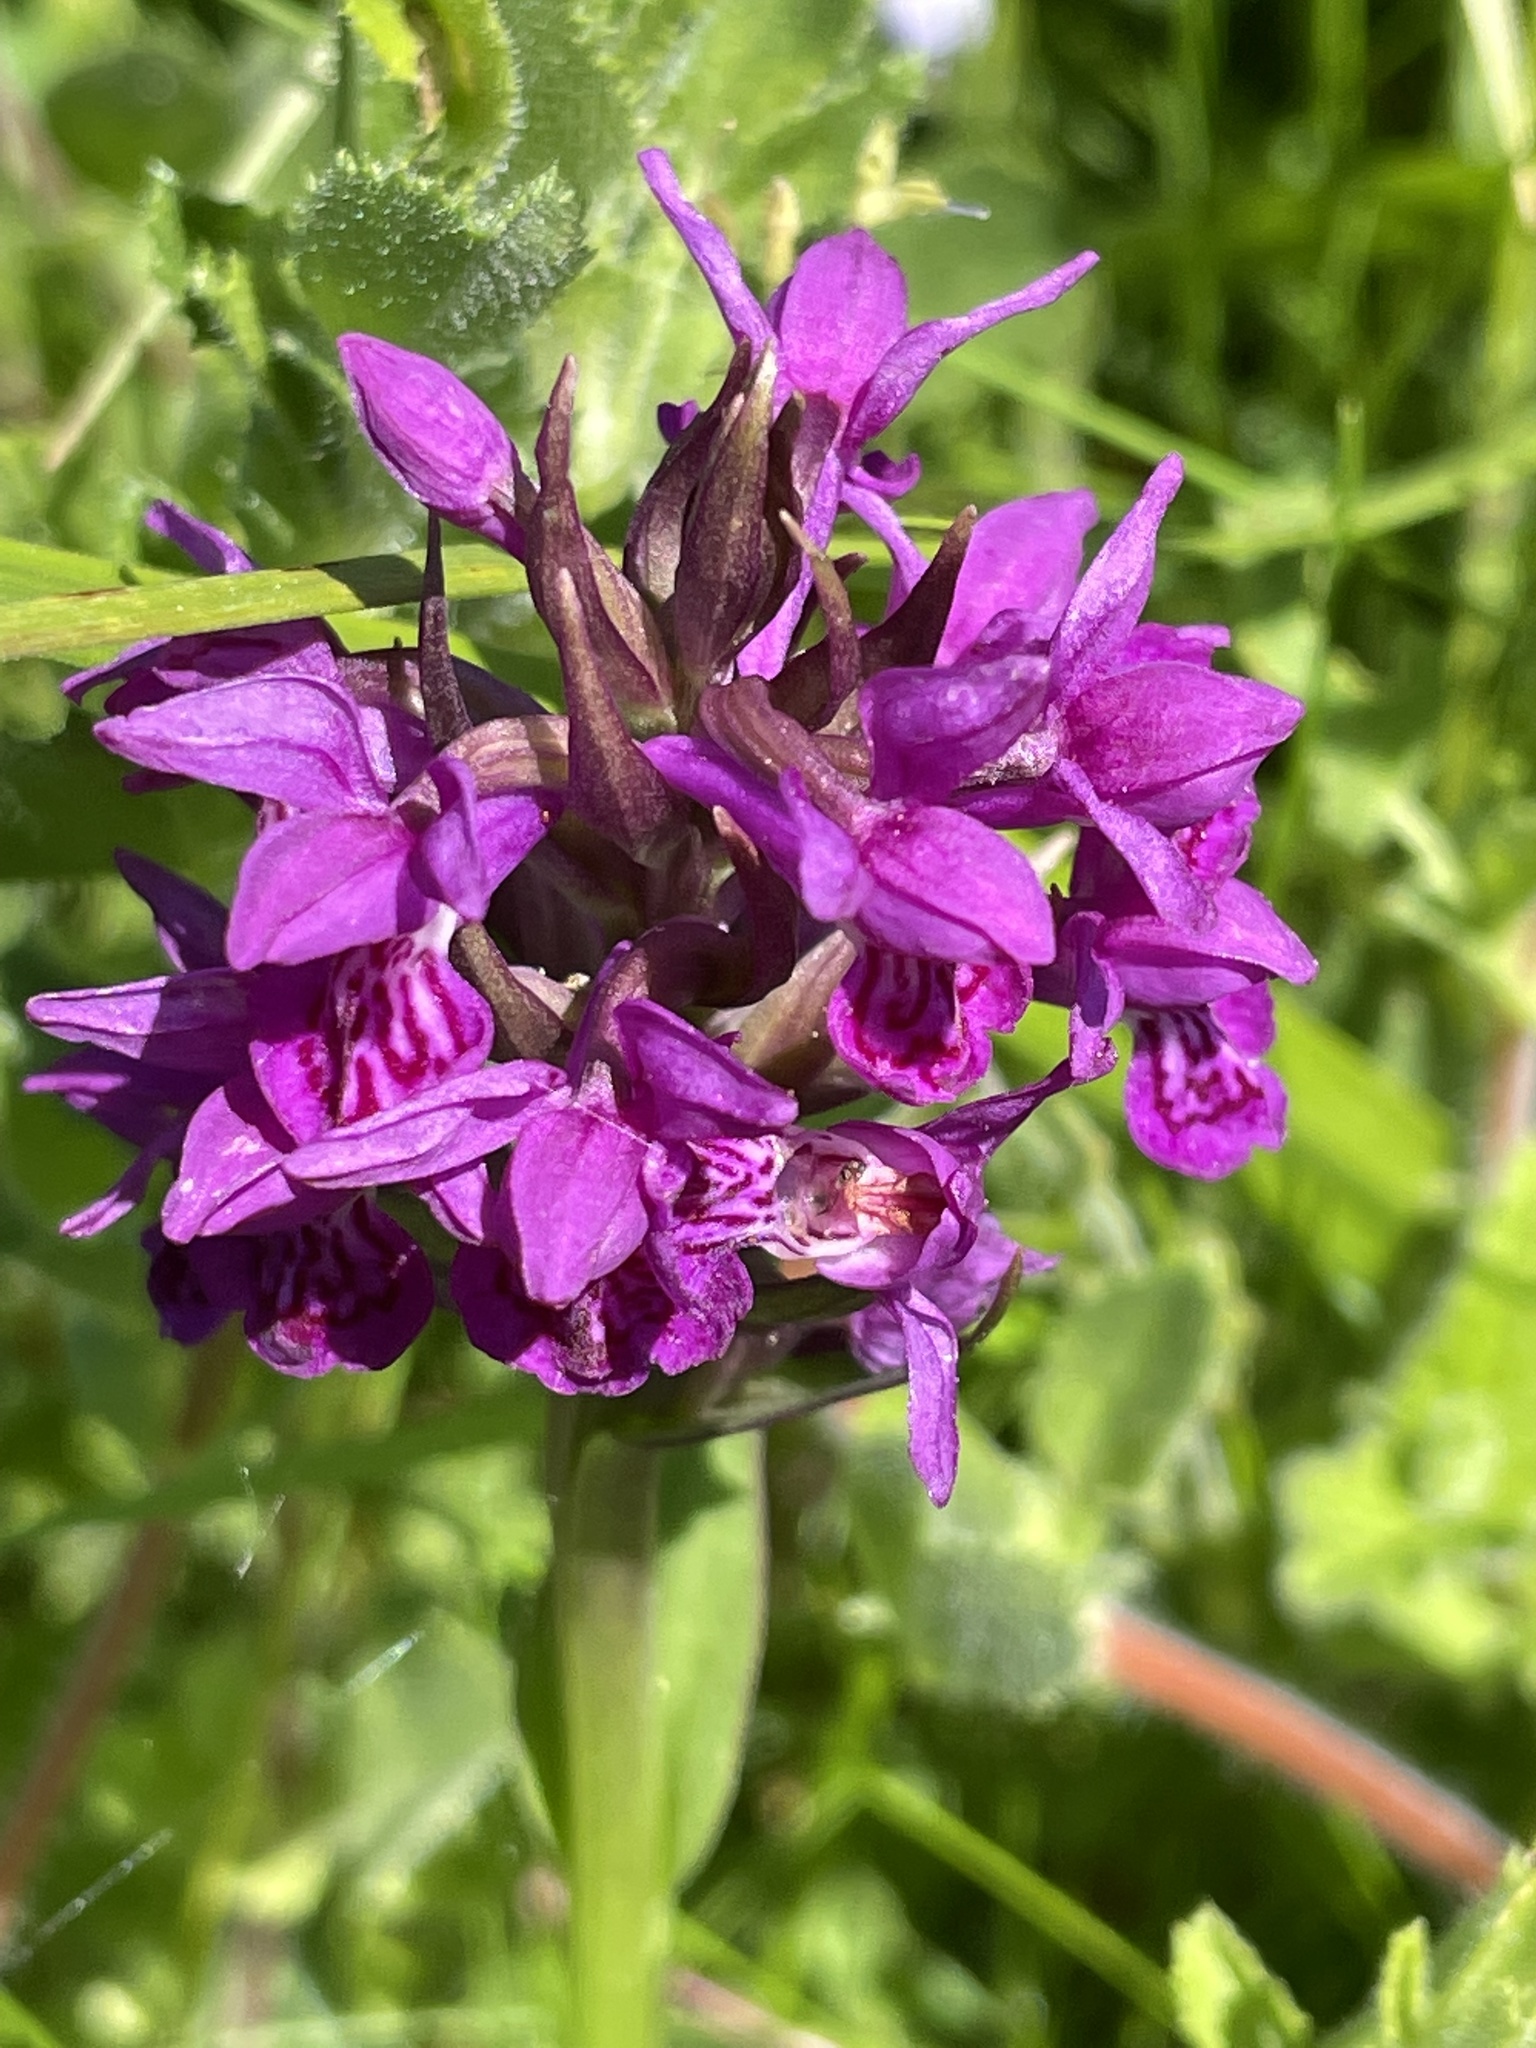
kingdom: Plantae
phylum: Tracheophyta
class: Liliopsida
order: Asparagales
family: Orchidaceae
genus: Dactylorhiza
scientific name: Dactylorhiza majalis
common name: Marsh orchid
